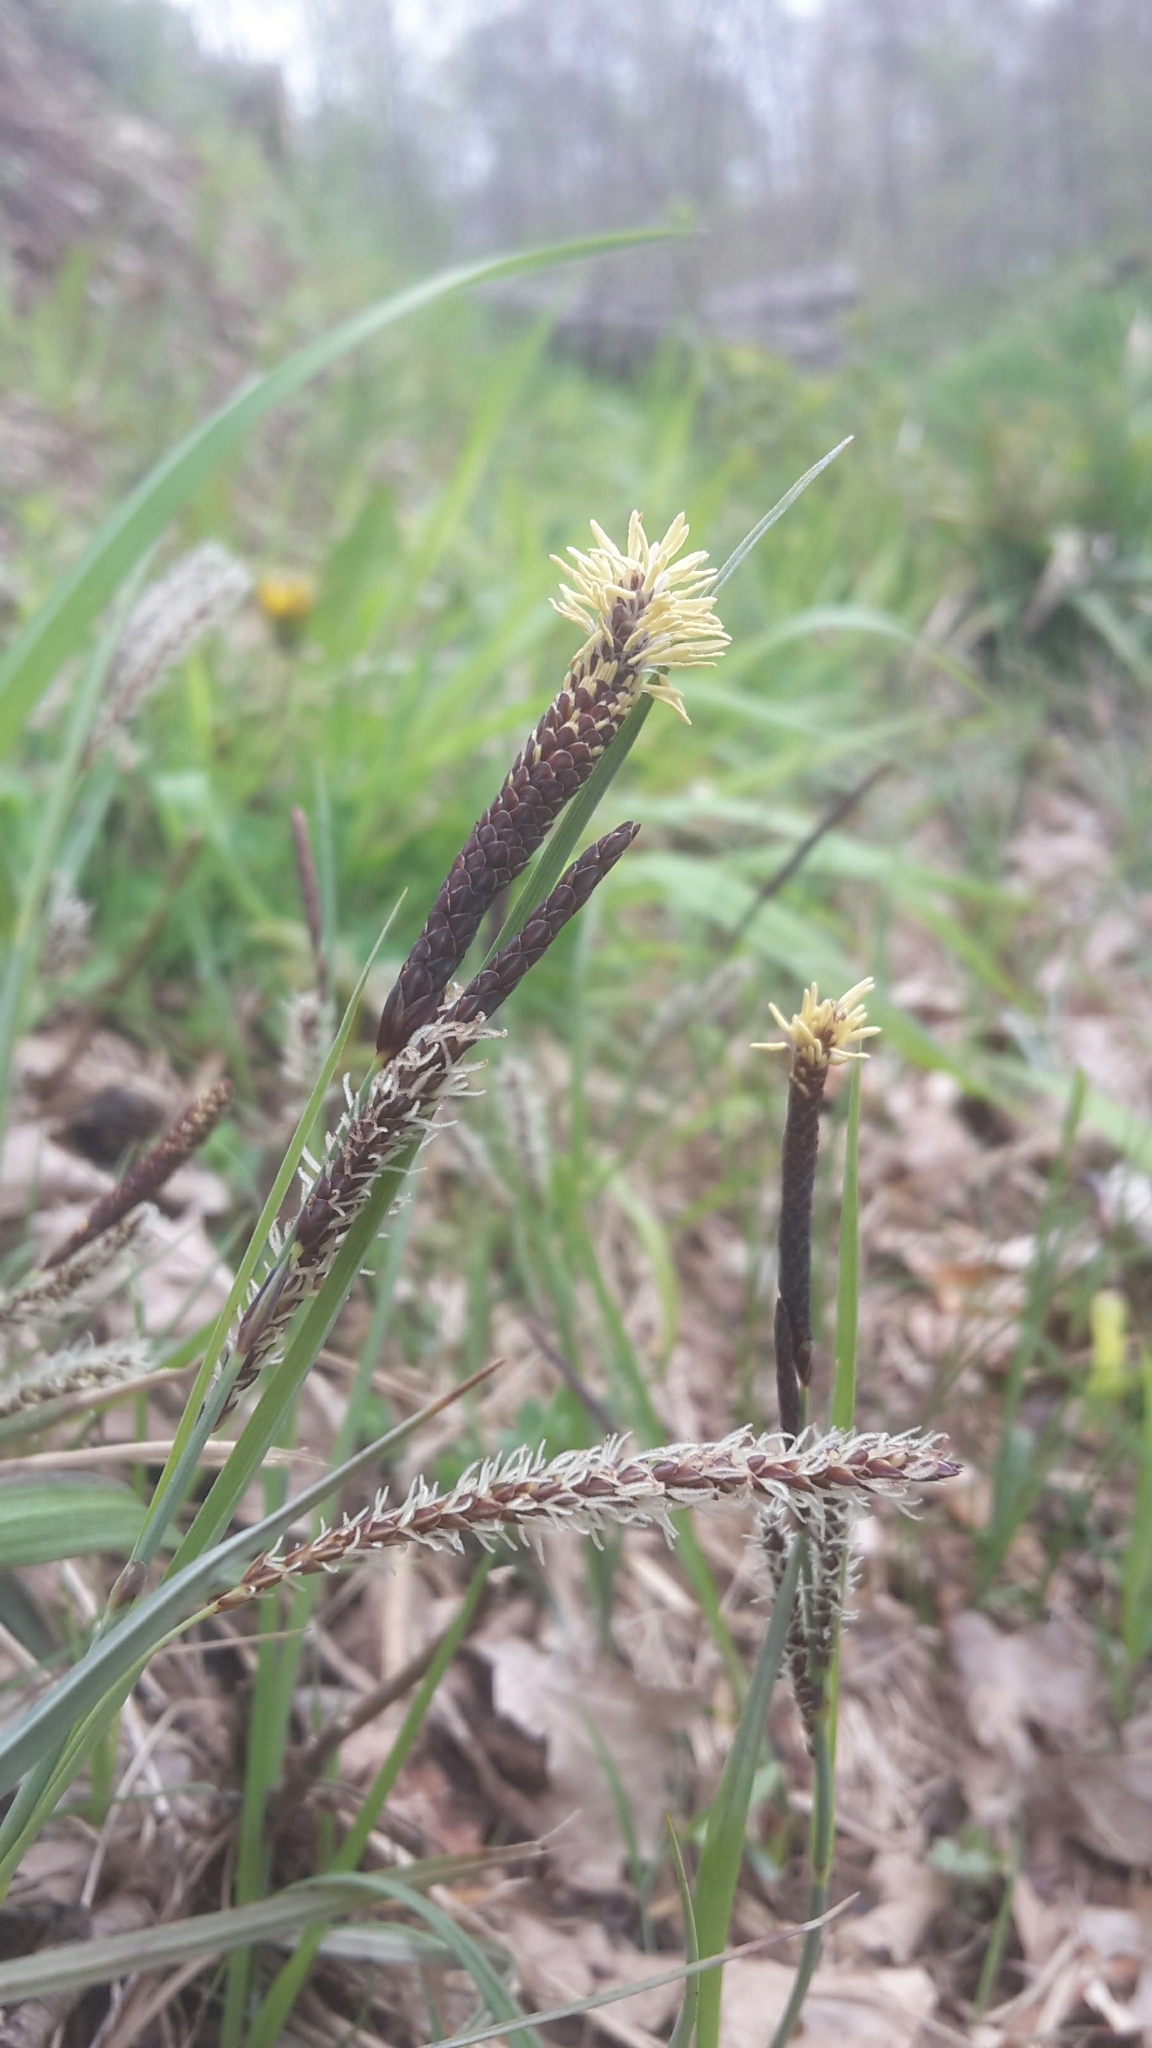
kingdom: Plantae
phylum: Tracheophyta
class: Liliopsida
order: Poales
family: Cyperaceae
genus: Carex
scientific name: Carex flacca
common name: Glaucous sedge
